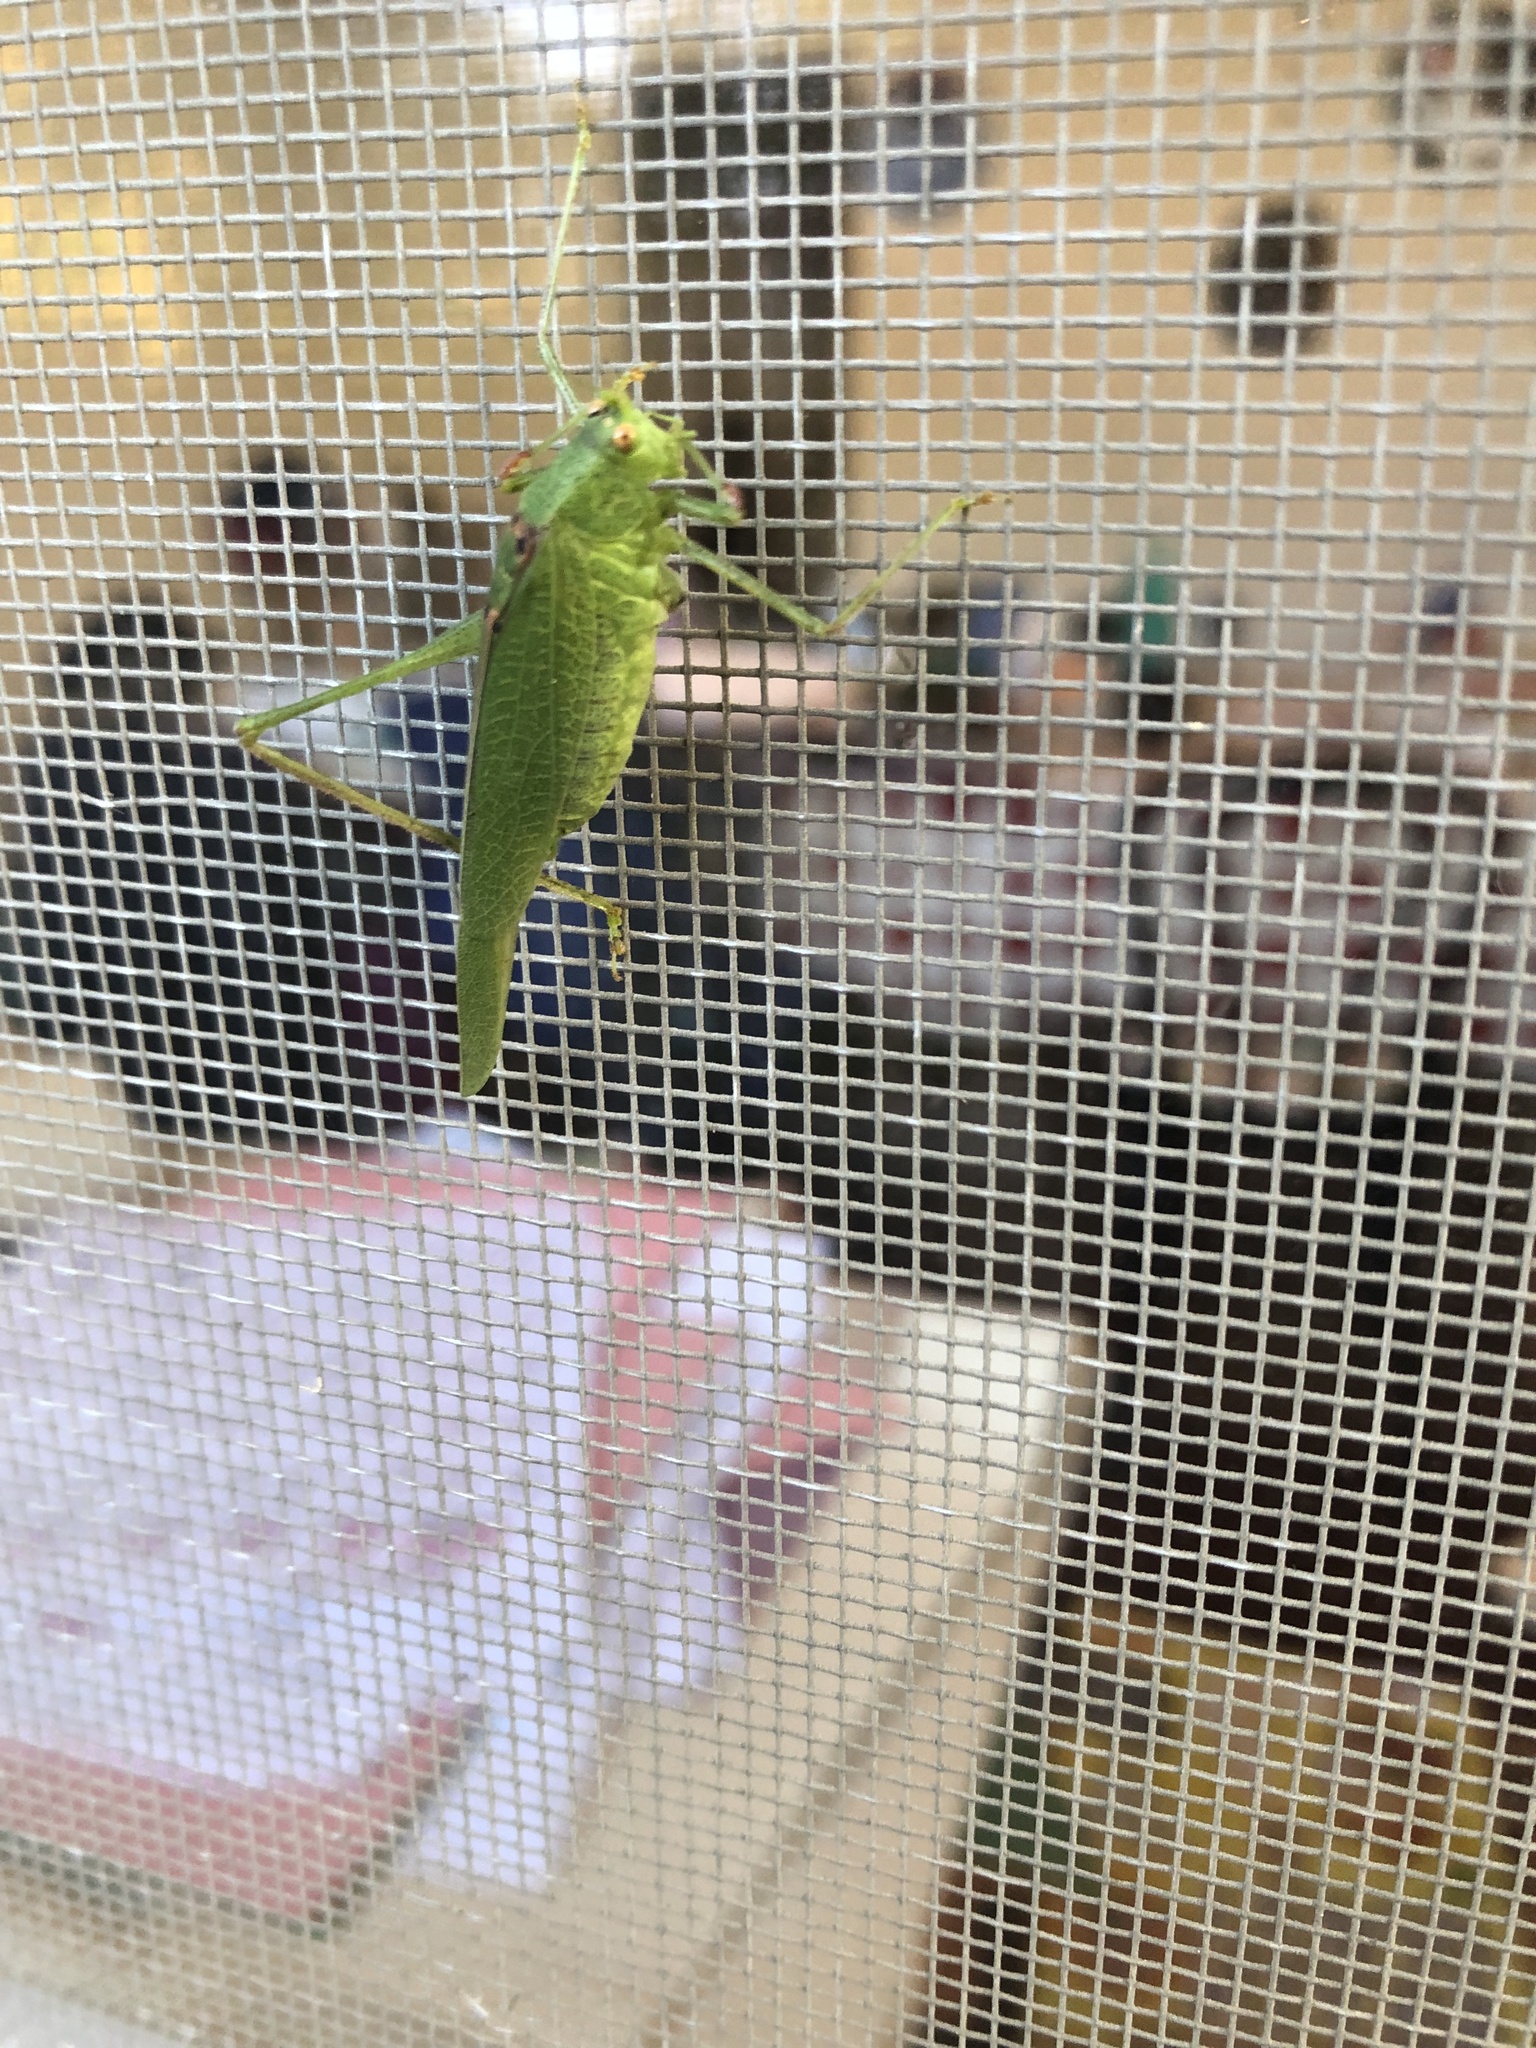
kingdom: Animalia
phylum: Arthropoda
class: Insecta
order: Orthoptera
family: Tettigoniidae
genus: Phaneroptera
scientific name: Phaneroptera nana
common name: Southern sickle bush-cricket
